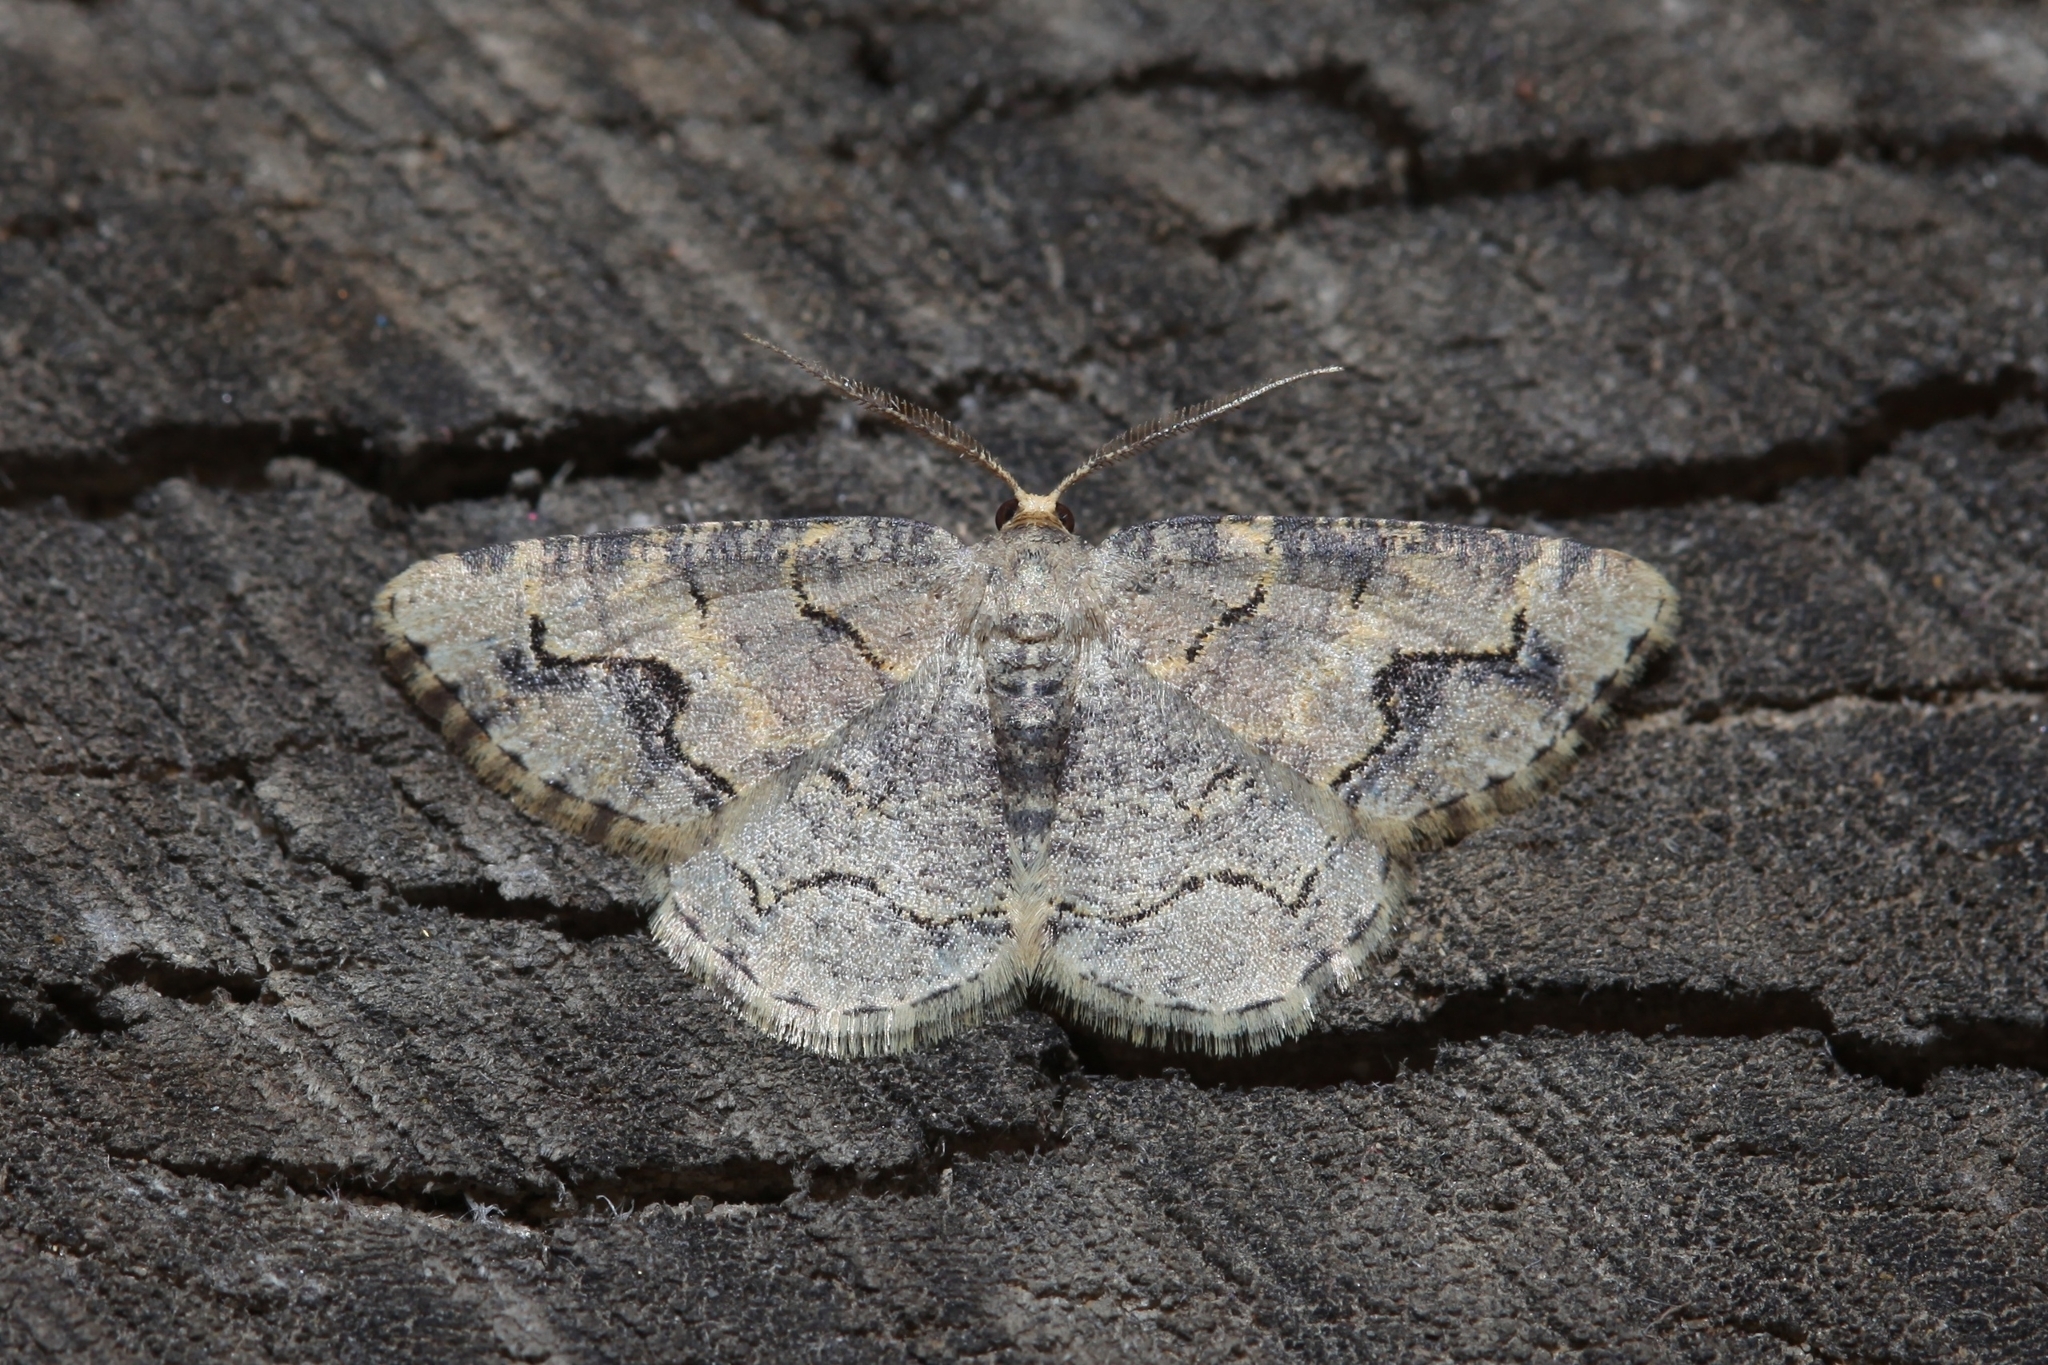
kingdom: Animalia
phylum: Arthropoda
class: Insecta
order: Lepidoptera
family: Geometridae
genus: Stegania
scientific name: Stegania dalmataria
